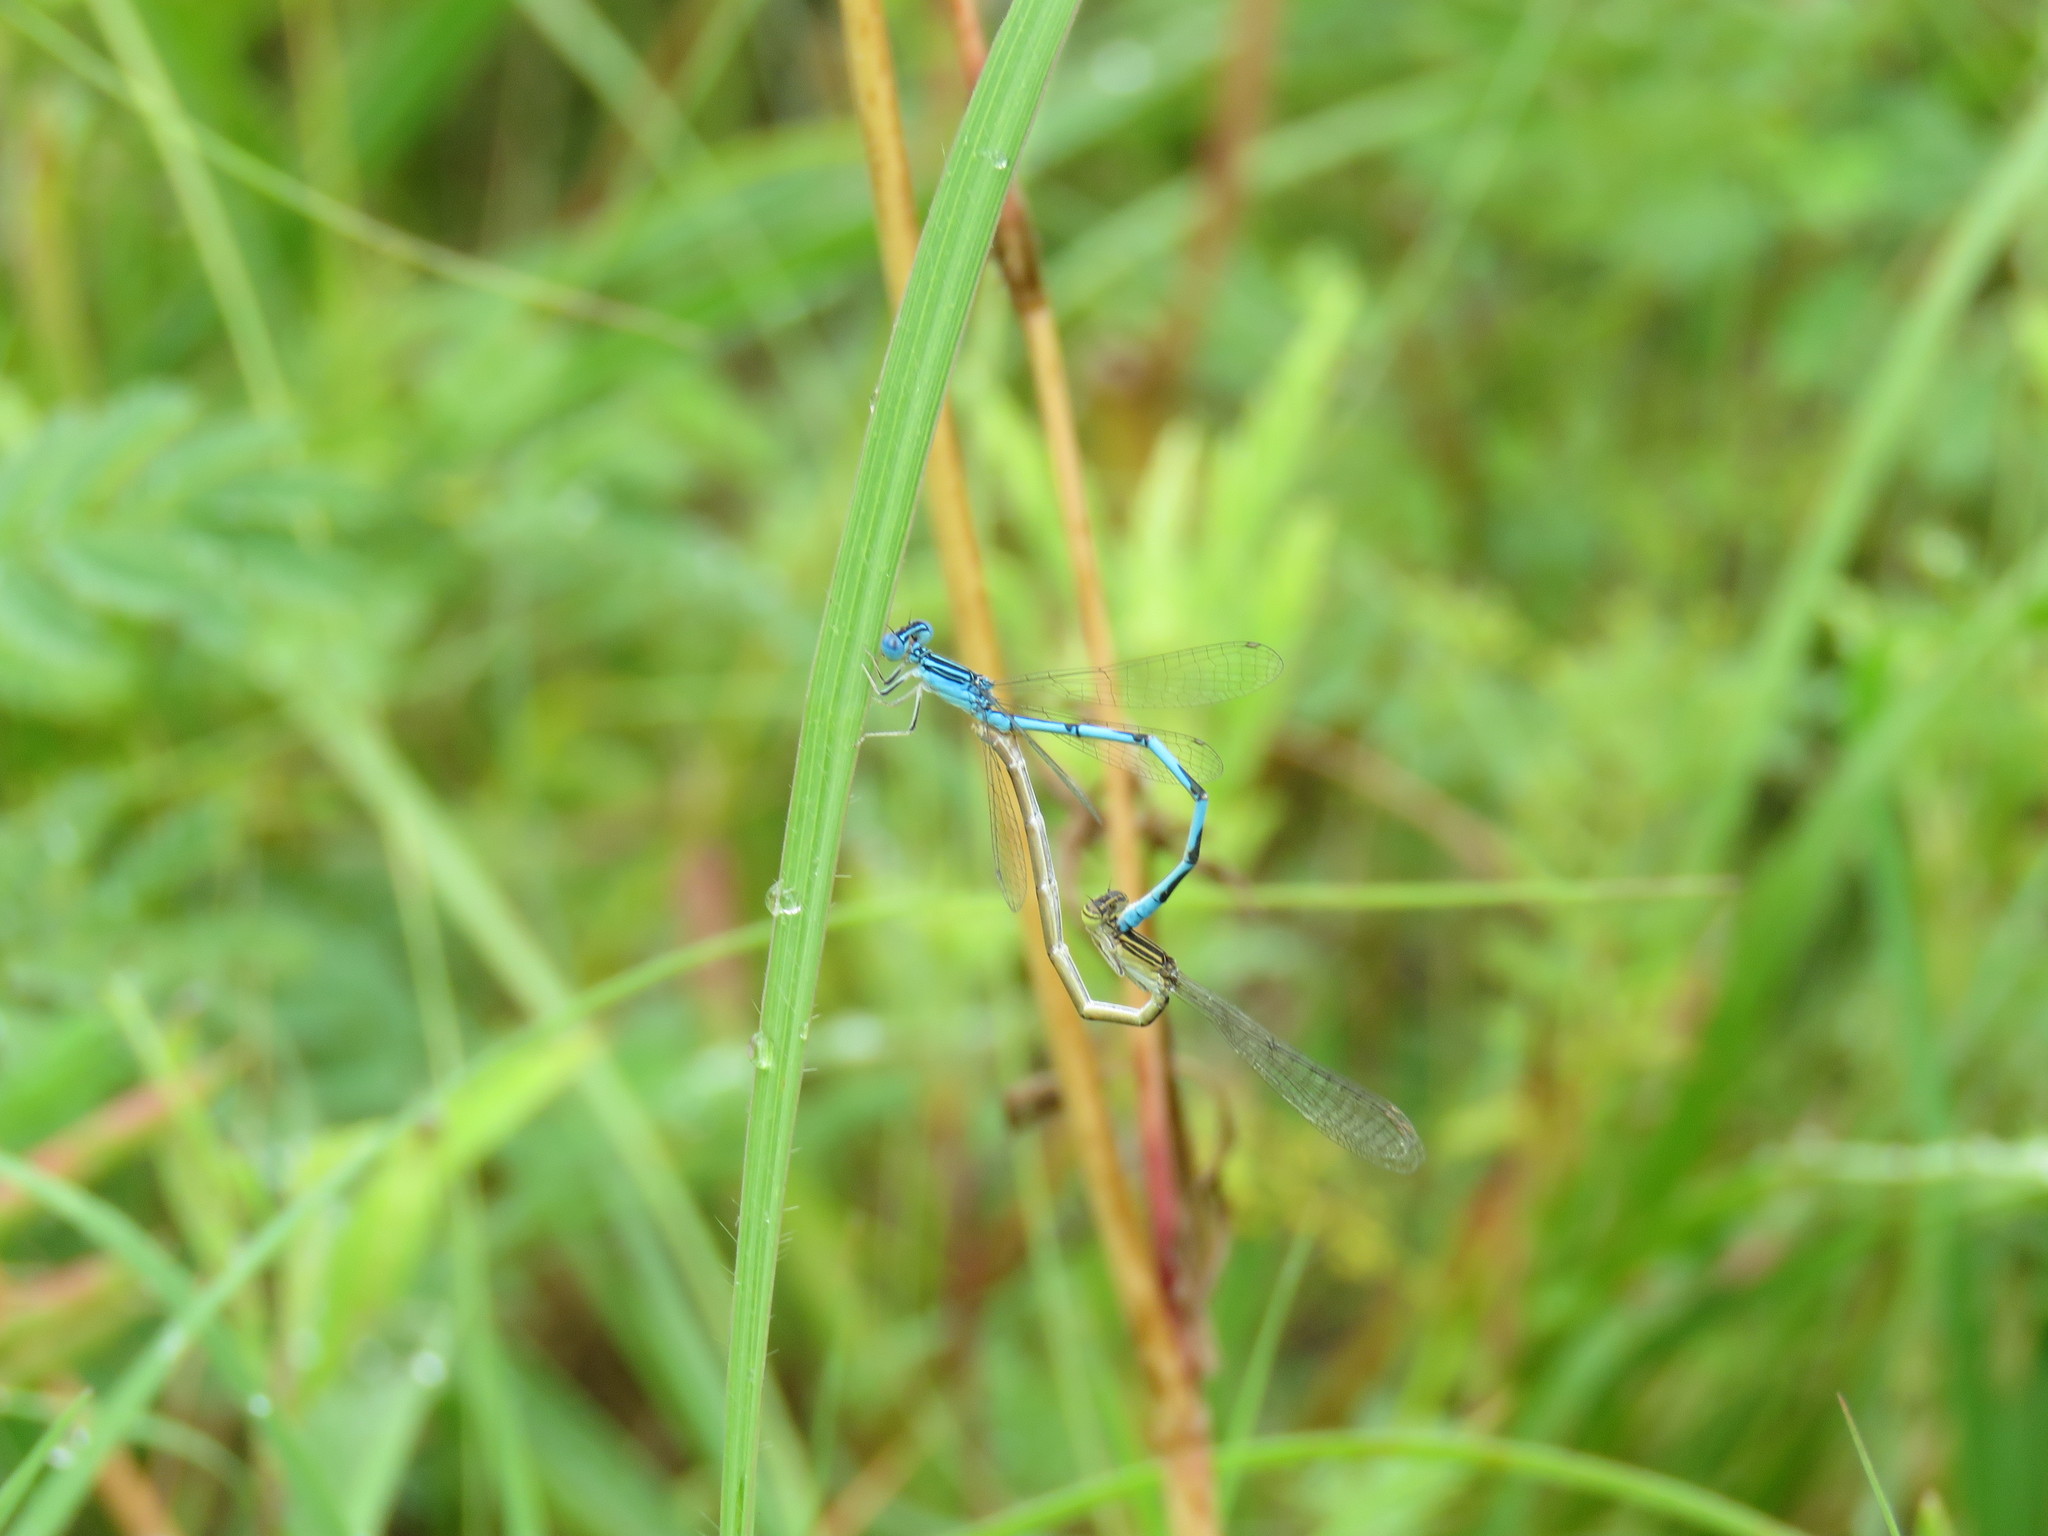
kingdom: Animalia
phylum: Arthropoda
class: Insecta
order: Odonata
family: Coenagrionidae
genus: Enallagma
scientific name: Enallagma basidens
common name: Double-striped bluet
